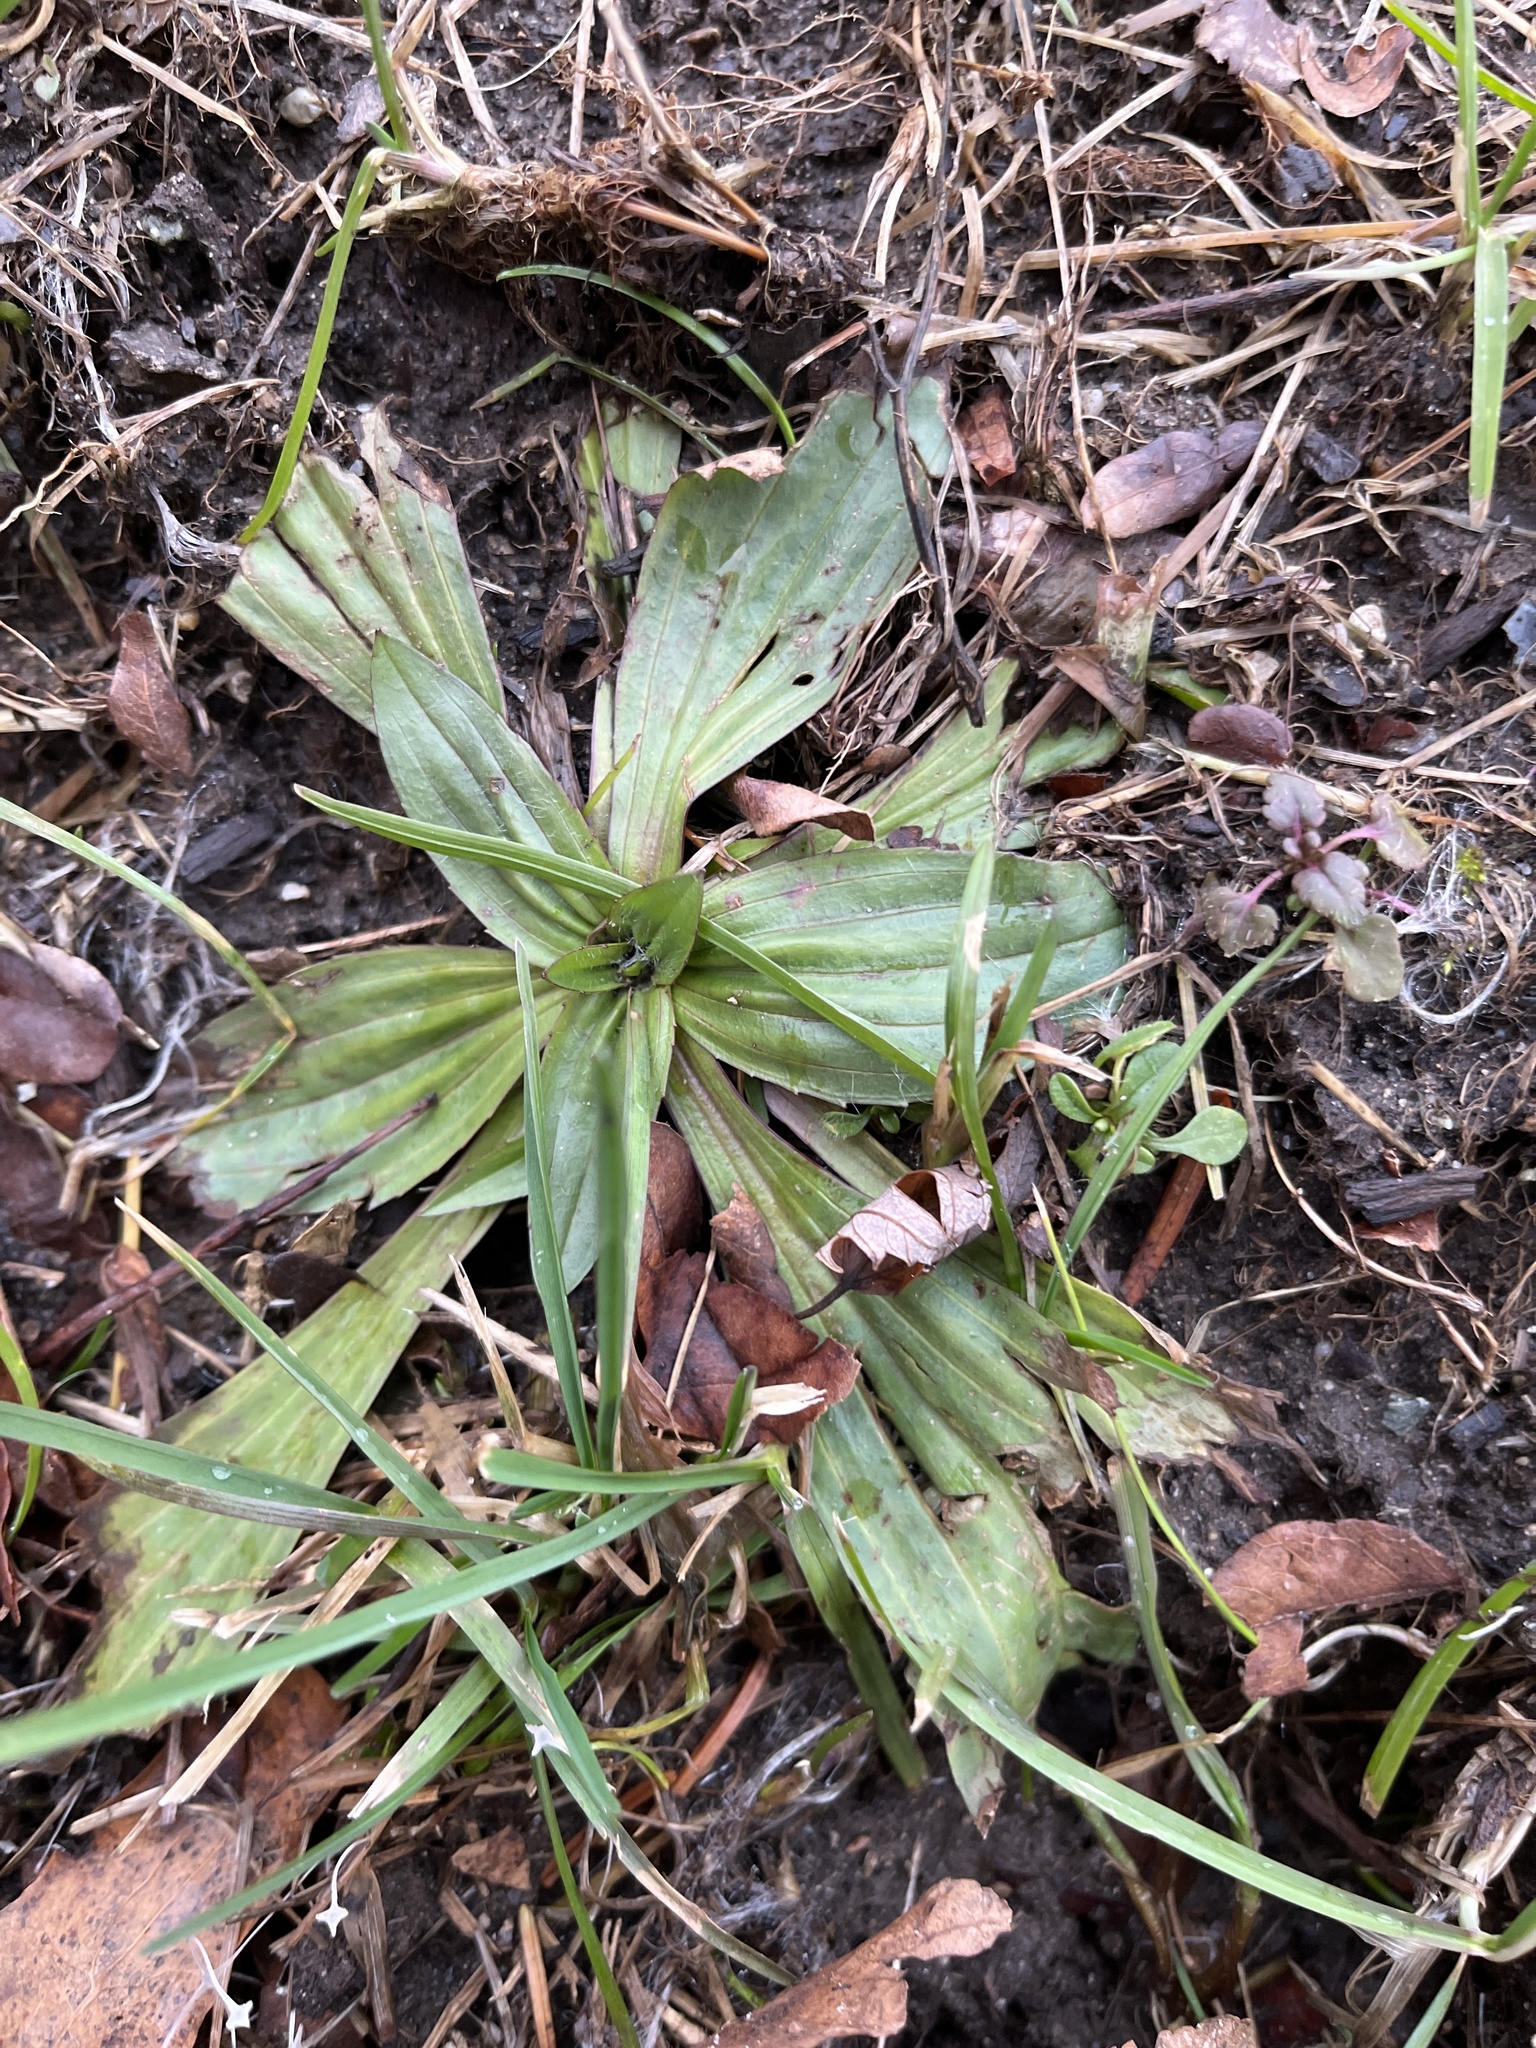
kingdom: Plantae
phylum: Tracheophyta
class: Magnoliopsida
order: Lamiales
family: Plantaginaceae
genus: Plantago
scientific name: Plantago lanceolata
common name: Ribwort plantain
